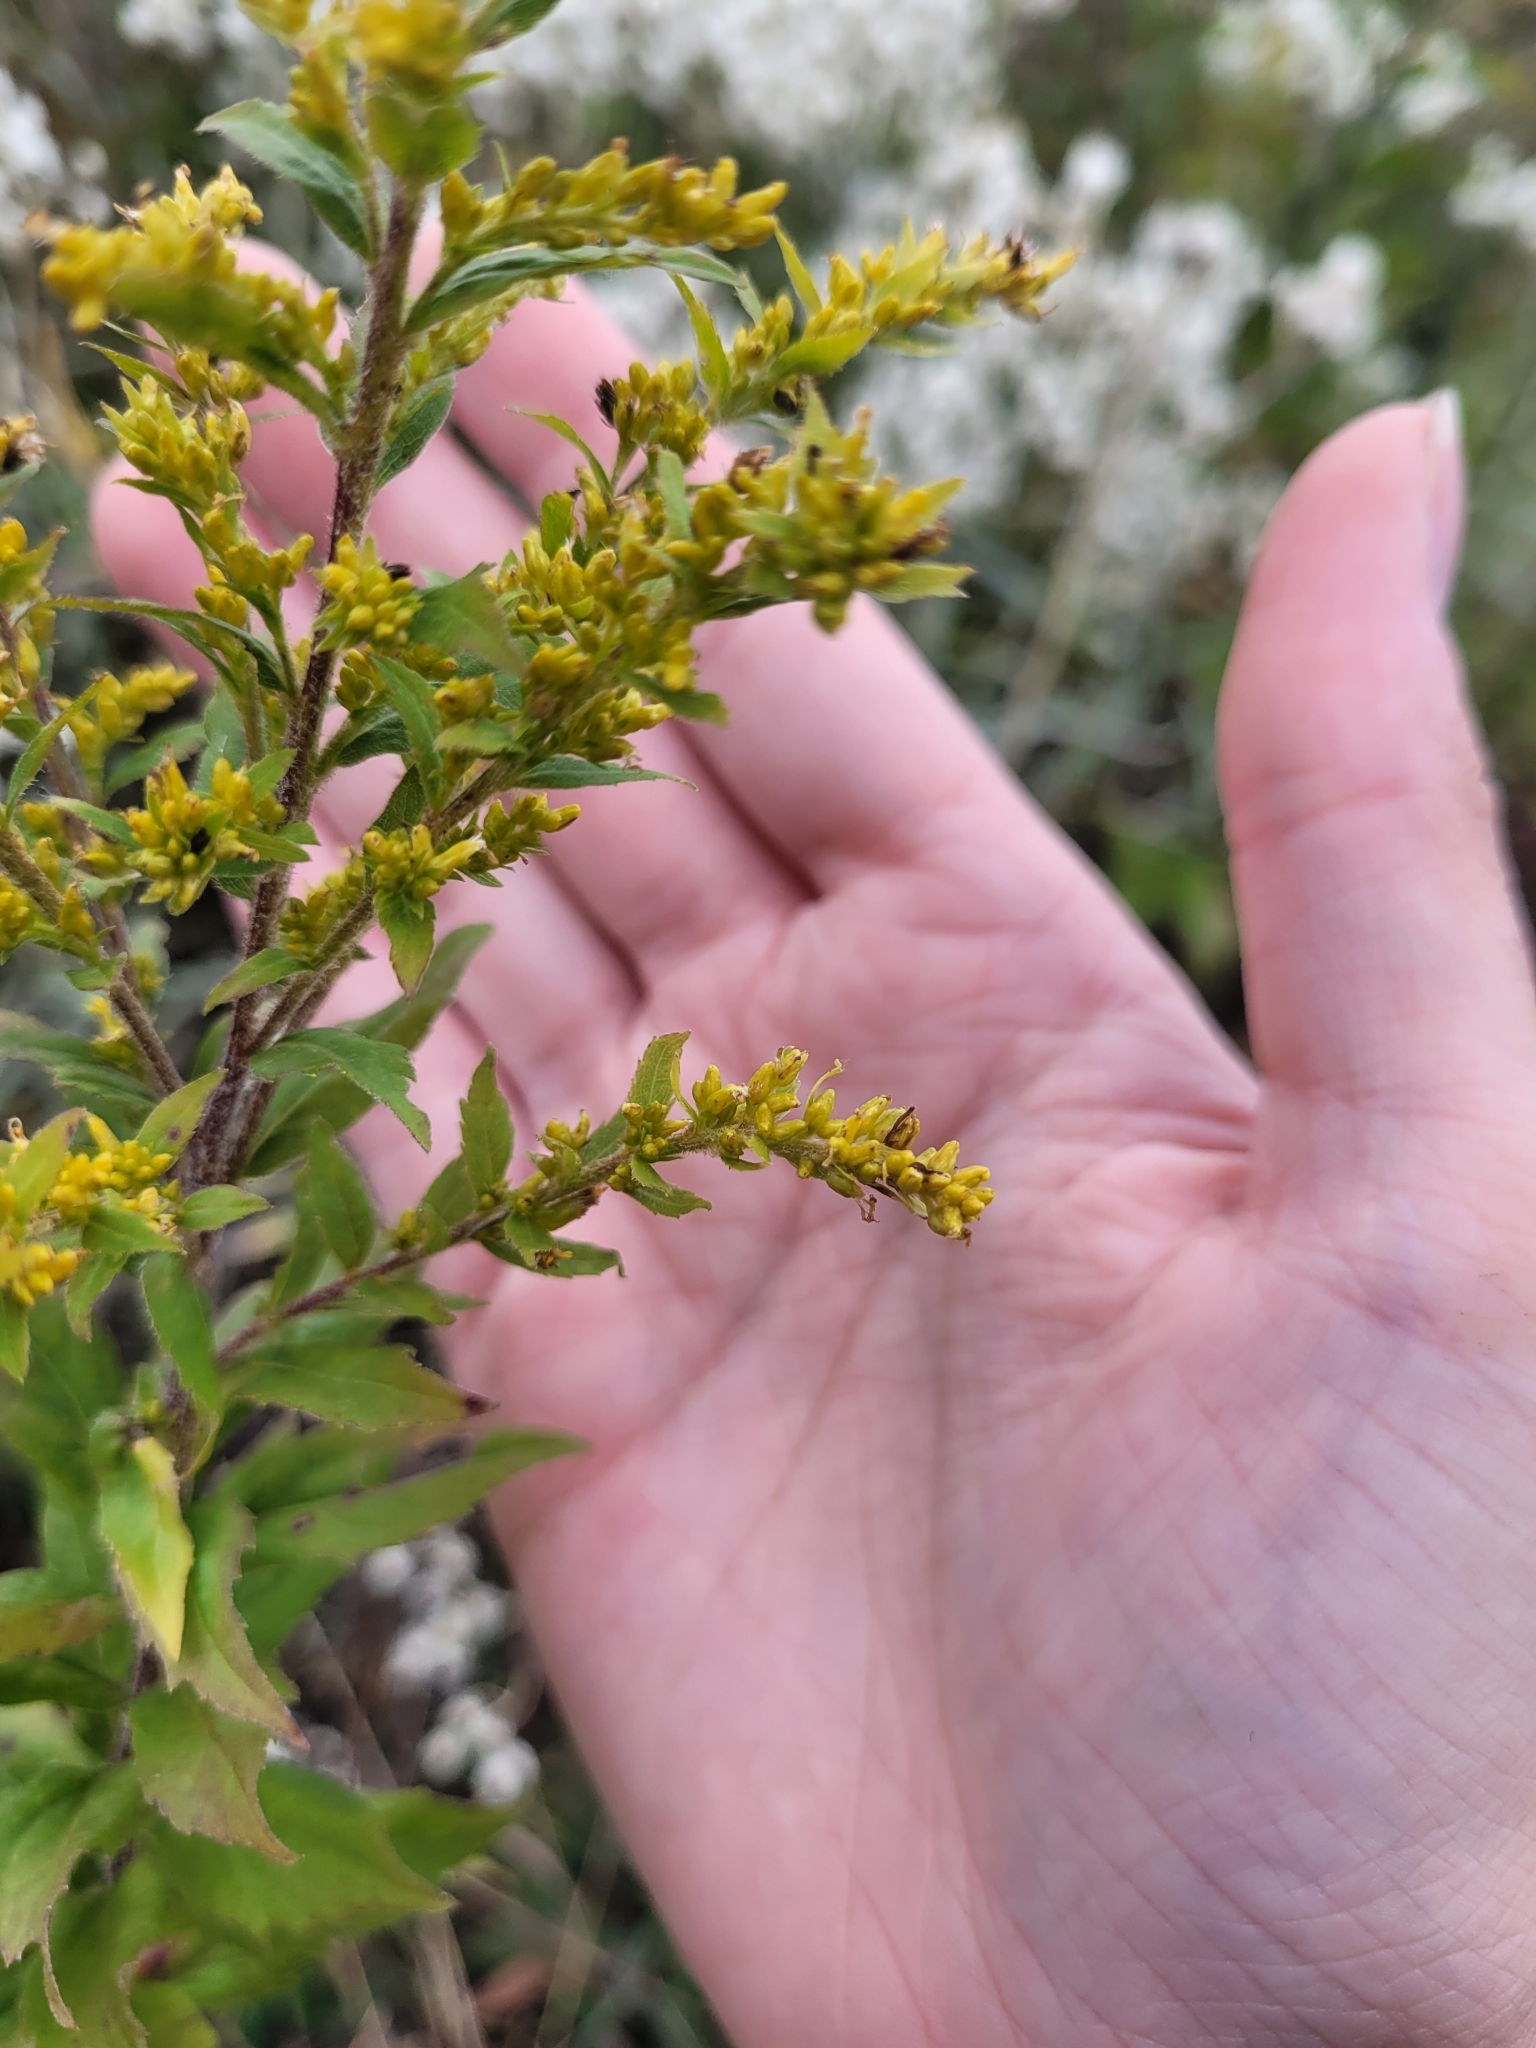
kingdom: Plantae
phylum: Tracheophyta
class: Magnoliopsida
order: Asterales
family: Asteraceae
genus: Solidago
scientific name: Solidago rugosa
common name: Rough-stemmed goldenrod
